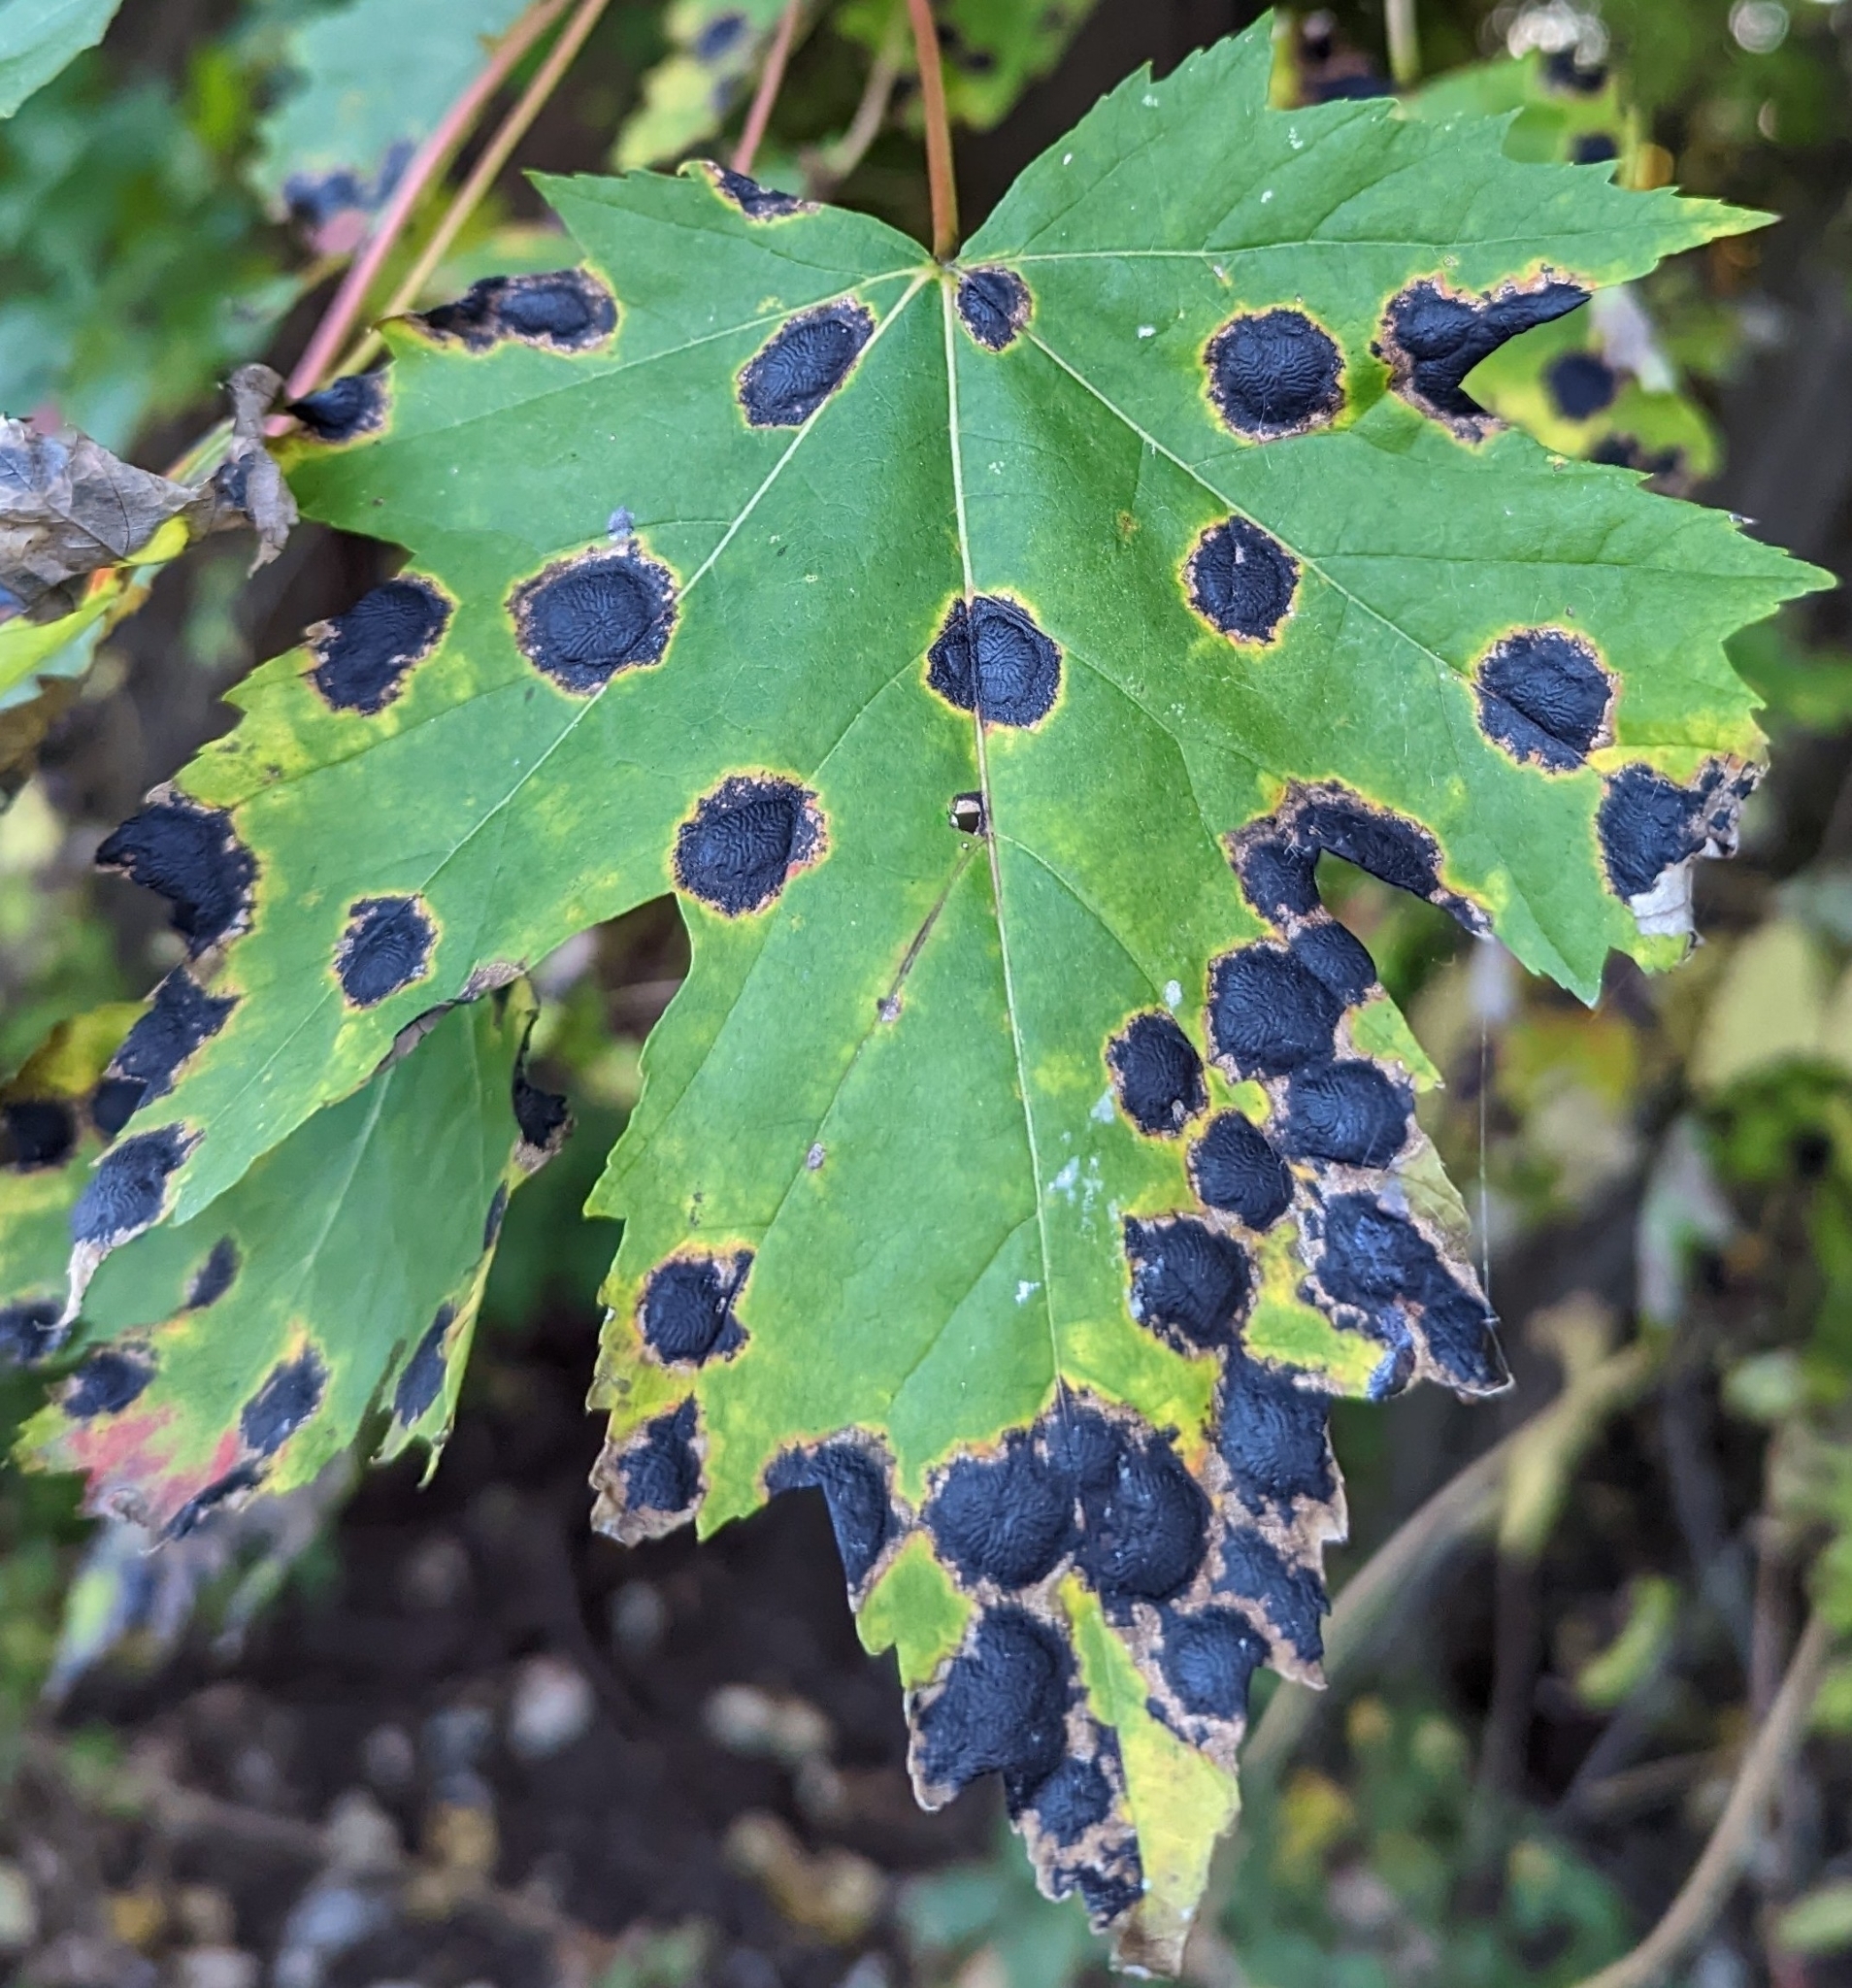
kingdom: Fungi
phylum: Ascomycota
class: Leotiomycetes
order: Rhytismatales
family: Rhytismataceae
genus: Rhytisma
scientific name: Rhytisma americanum
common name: American tar spot
